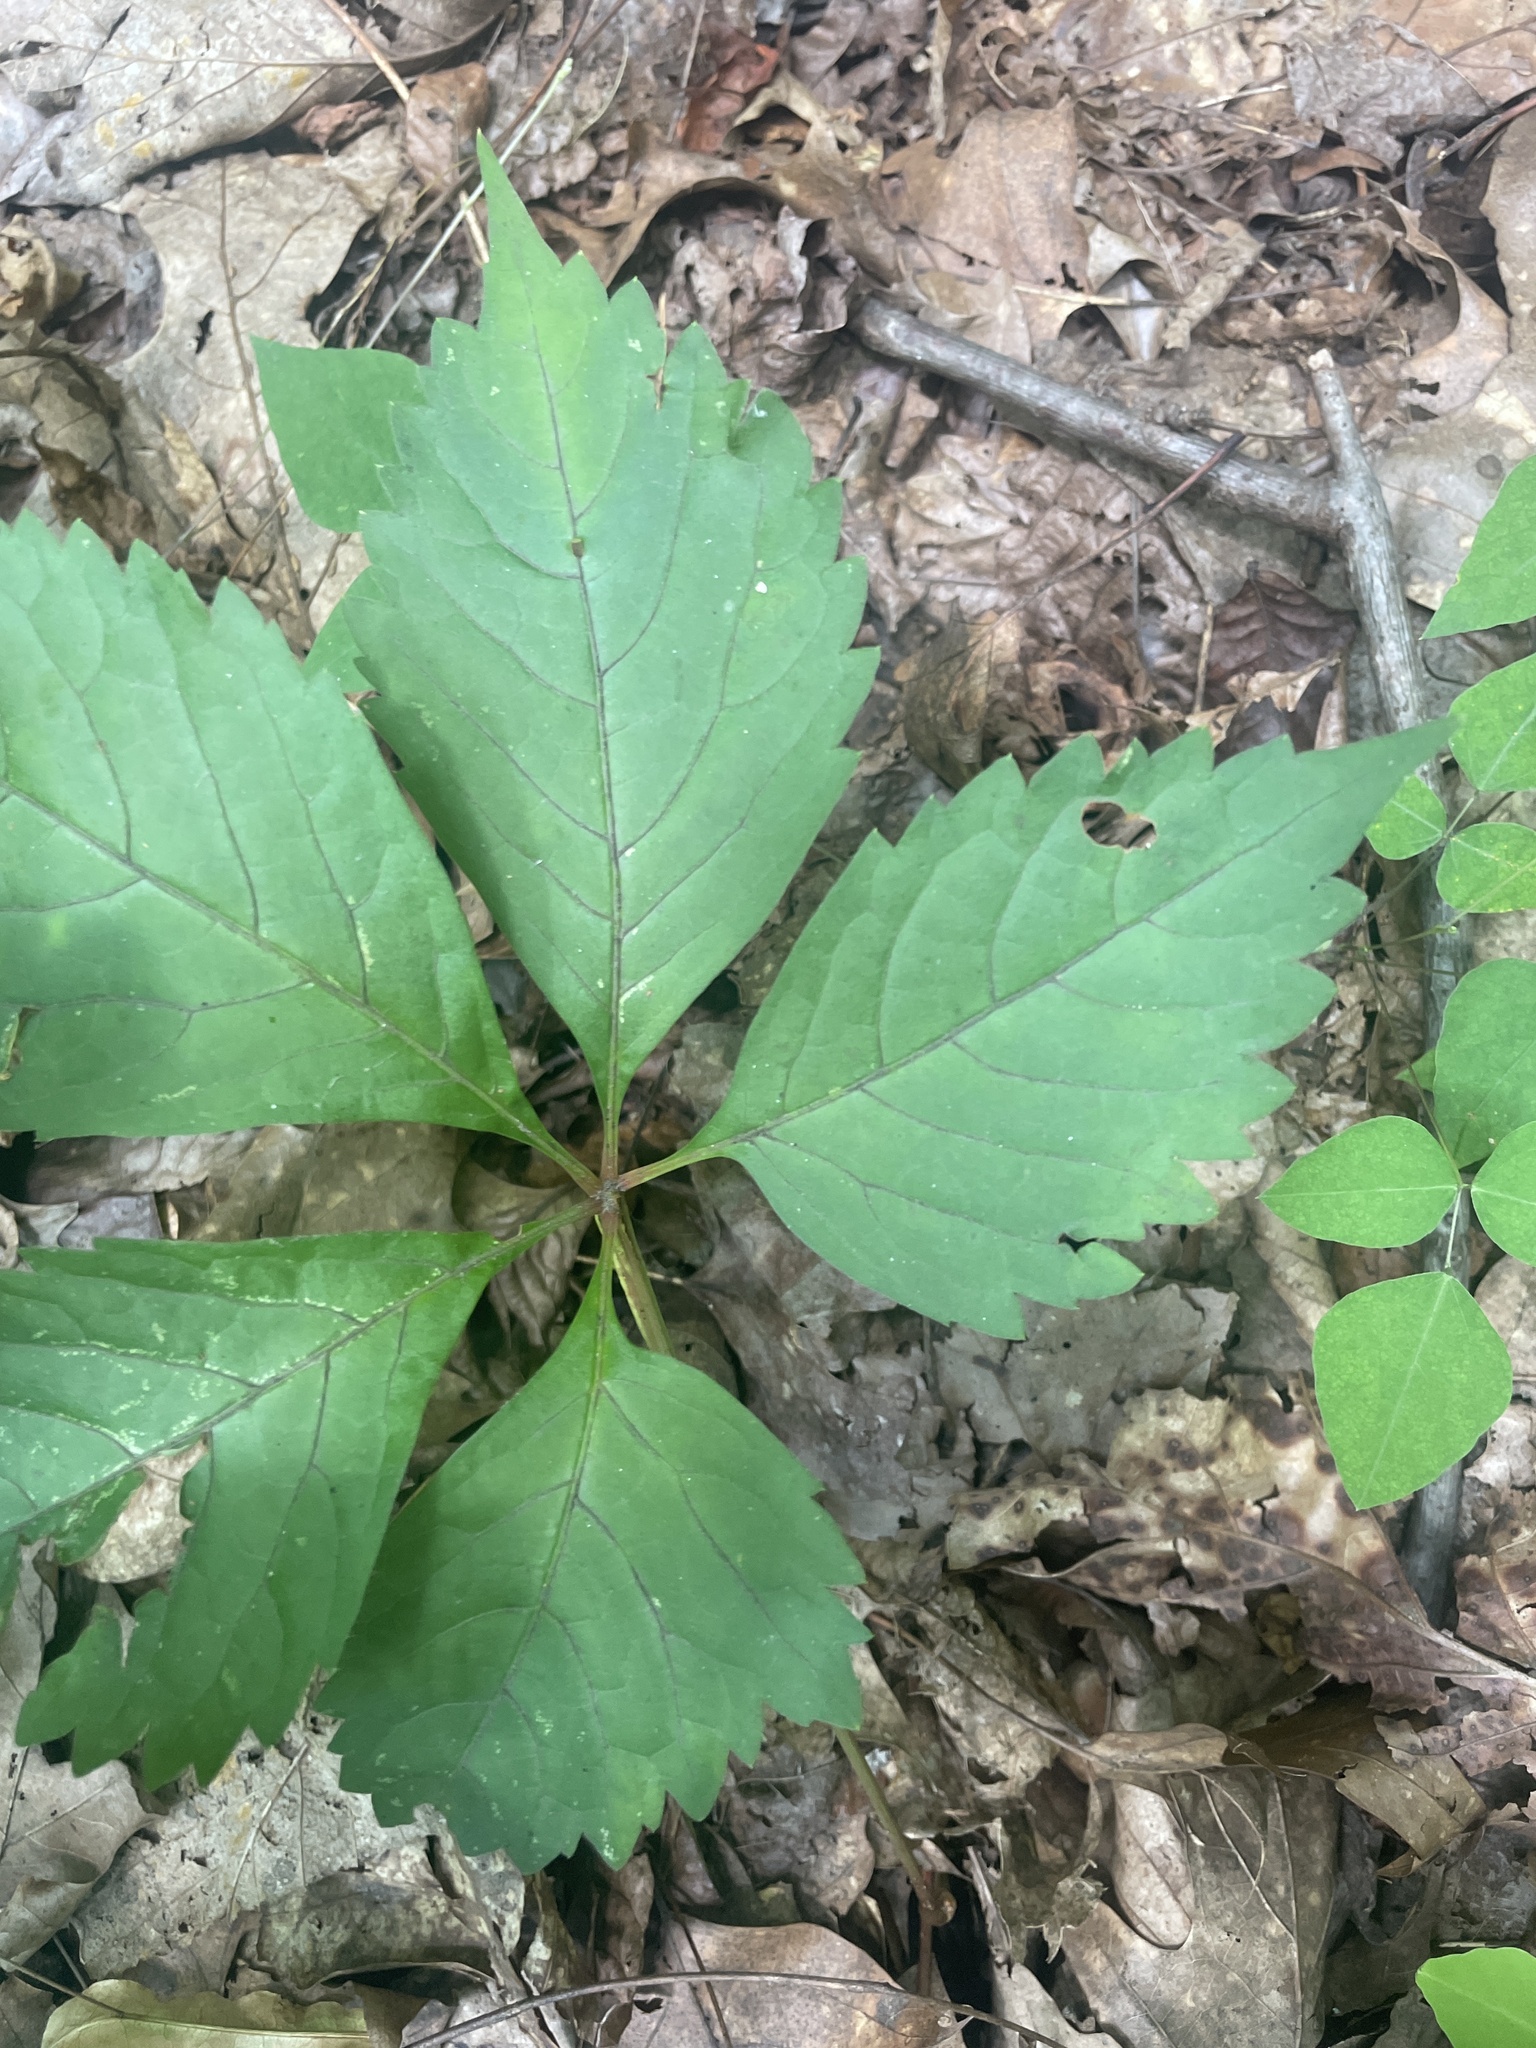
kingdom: Plantae
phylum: Tracheophyta
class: Magnoliopsida
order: Vitales
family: Vitaceae
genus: Parthenocissus
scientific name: Parthenocissus quinquefolia
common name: Virginia-creeper
